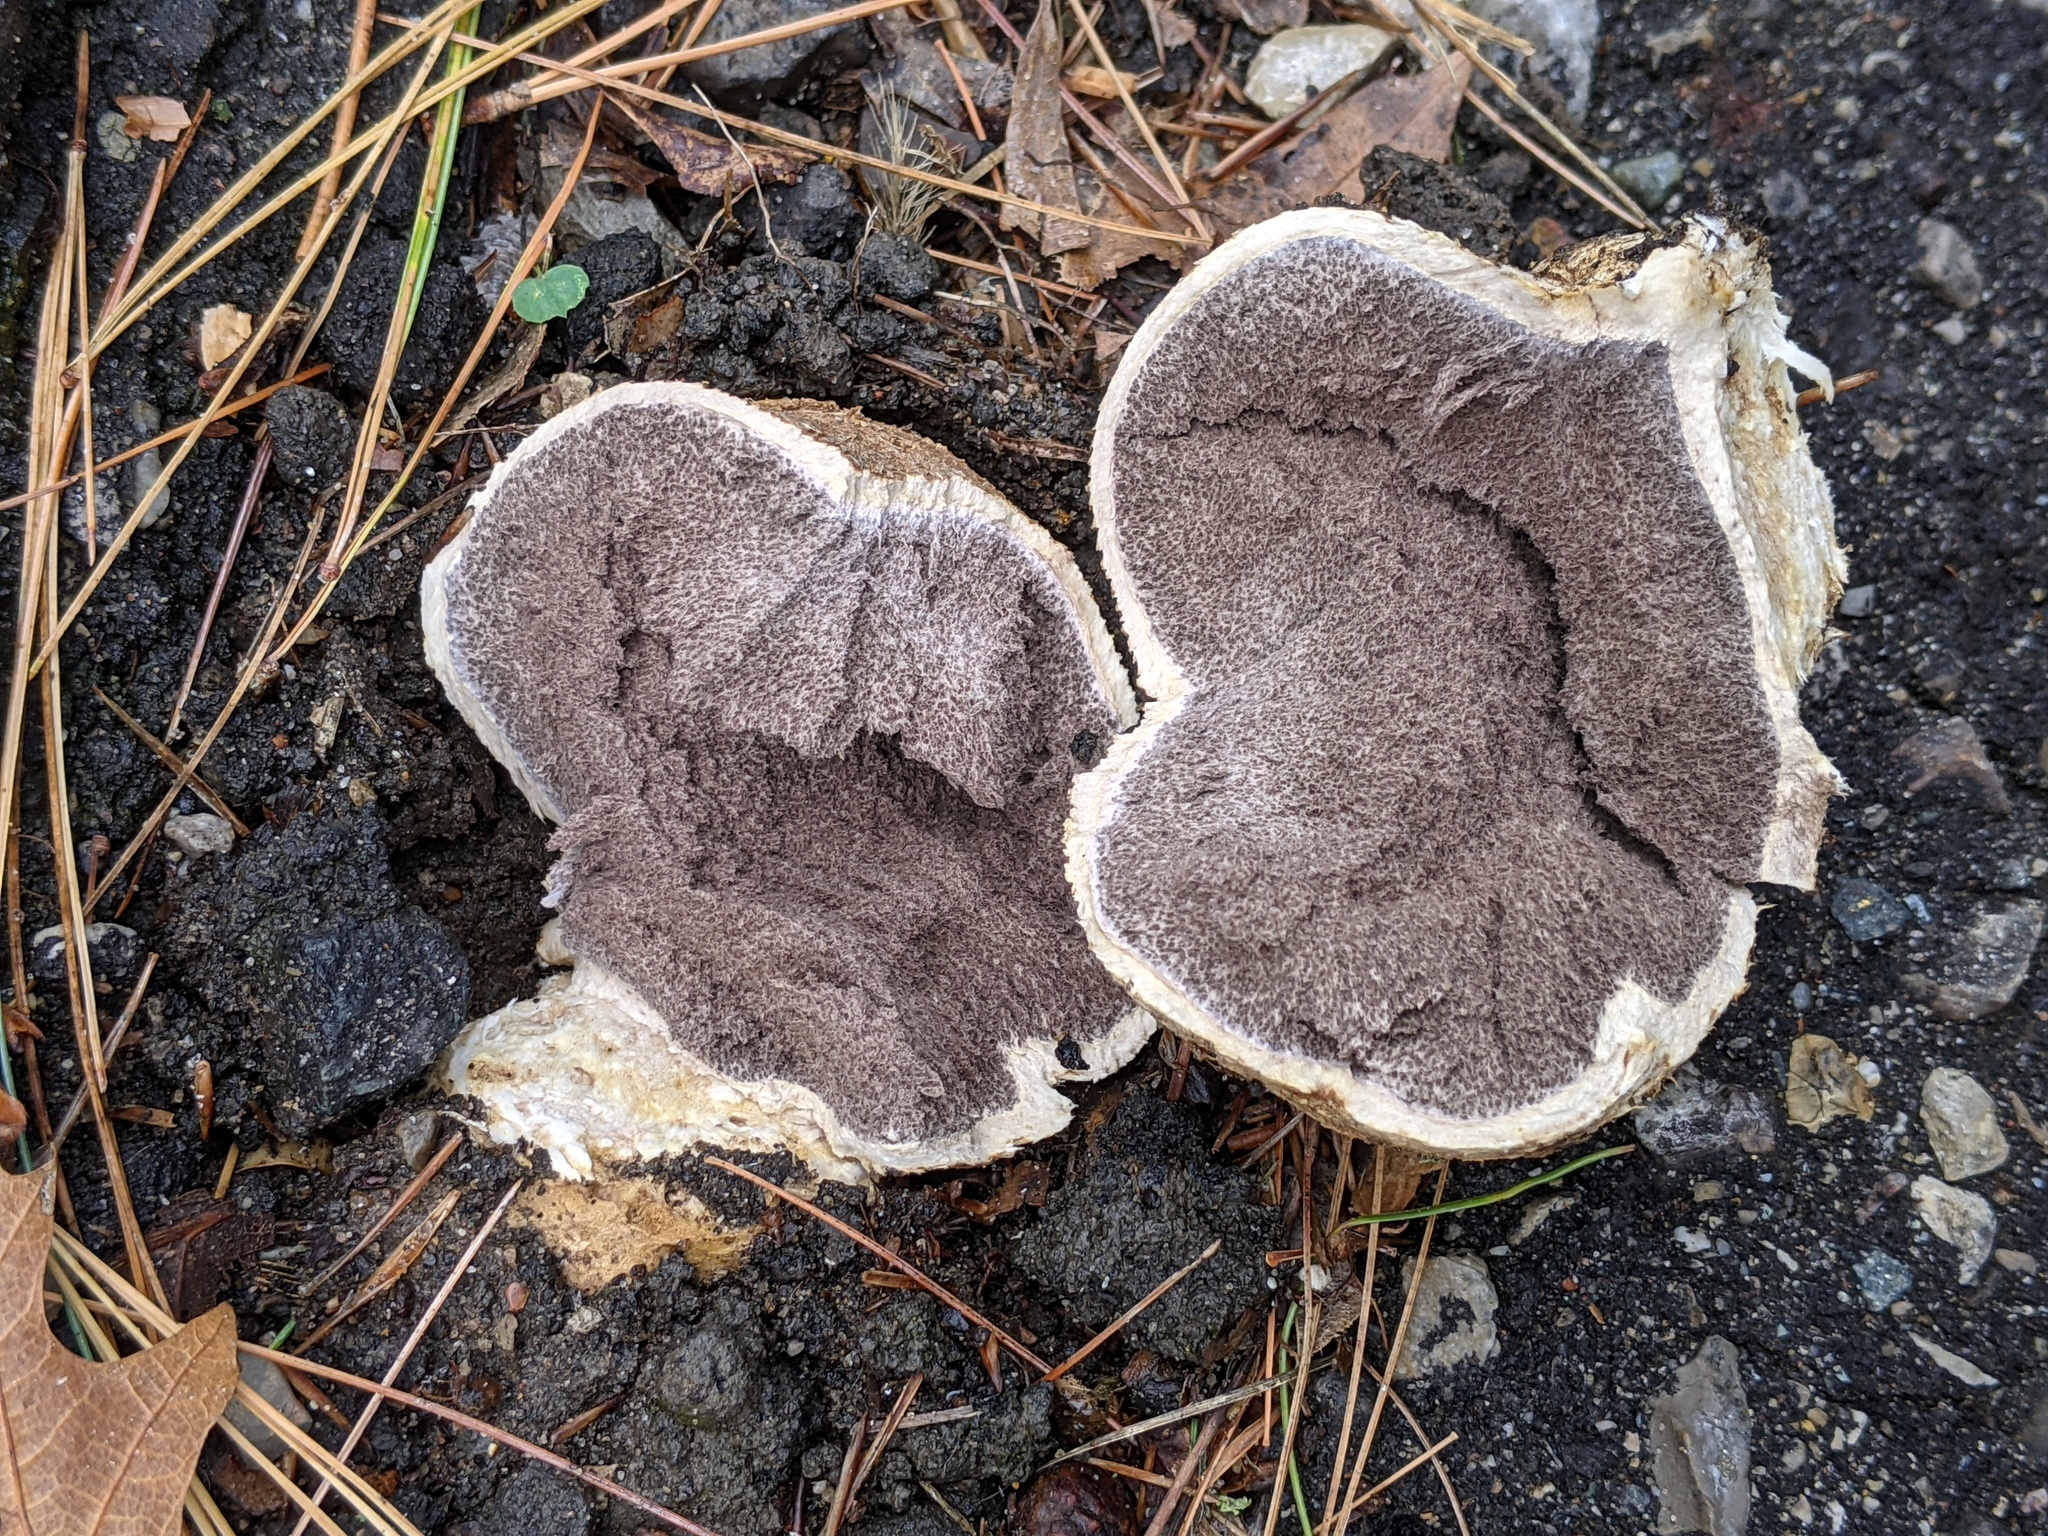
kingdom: Fungi
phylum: Basidiomycota
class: Agaricomycetes
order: Boletales
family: Sclerodermataceae
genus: Scleroderma
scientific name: Scleroderma citrinum
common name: Common earthball
